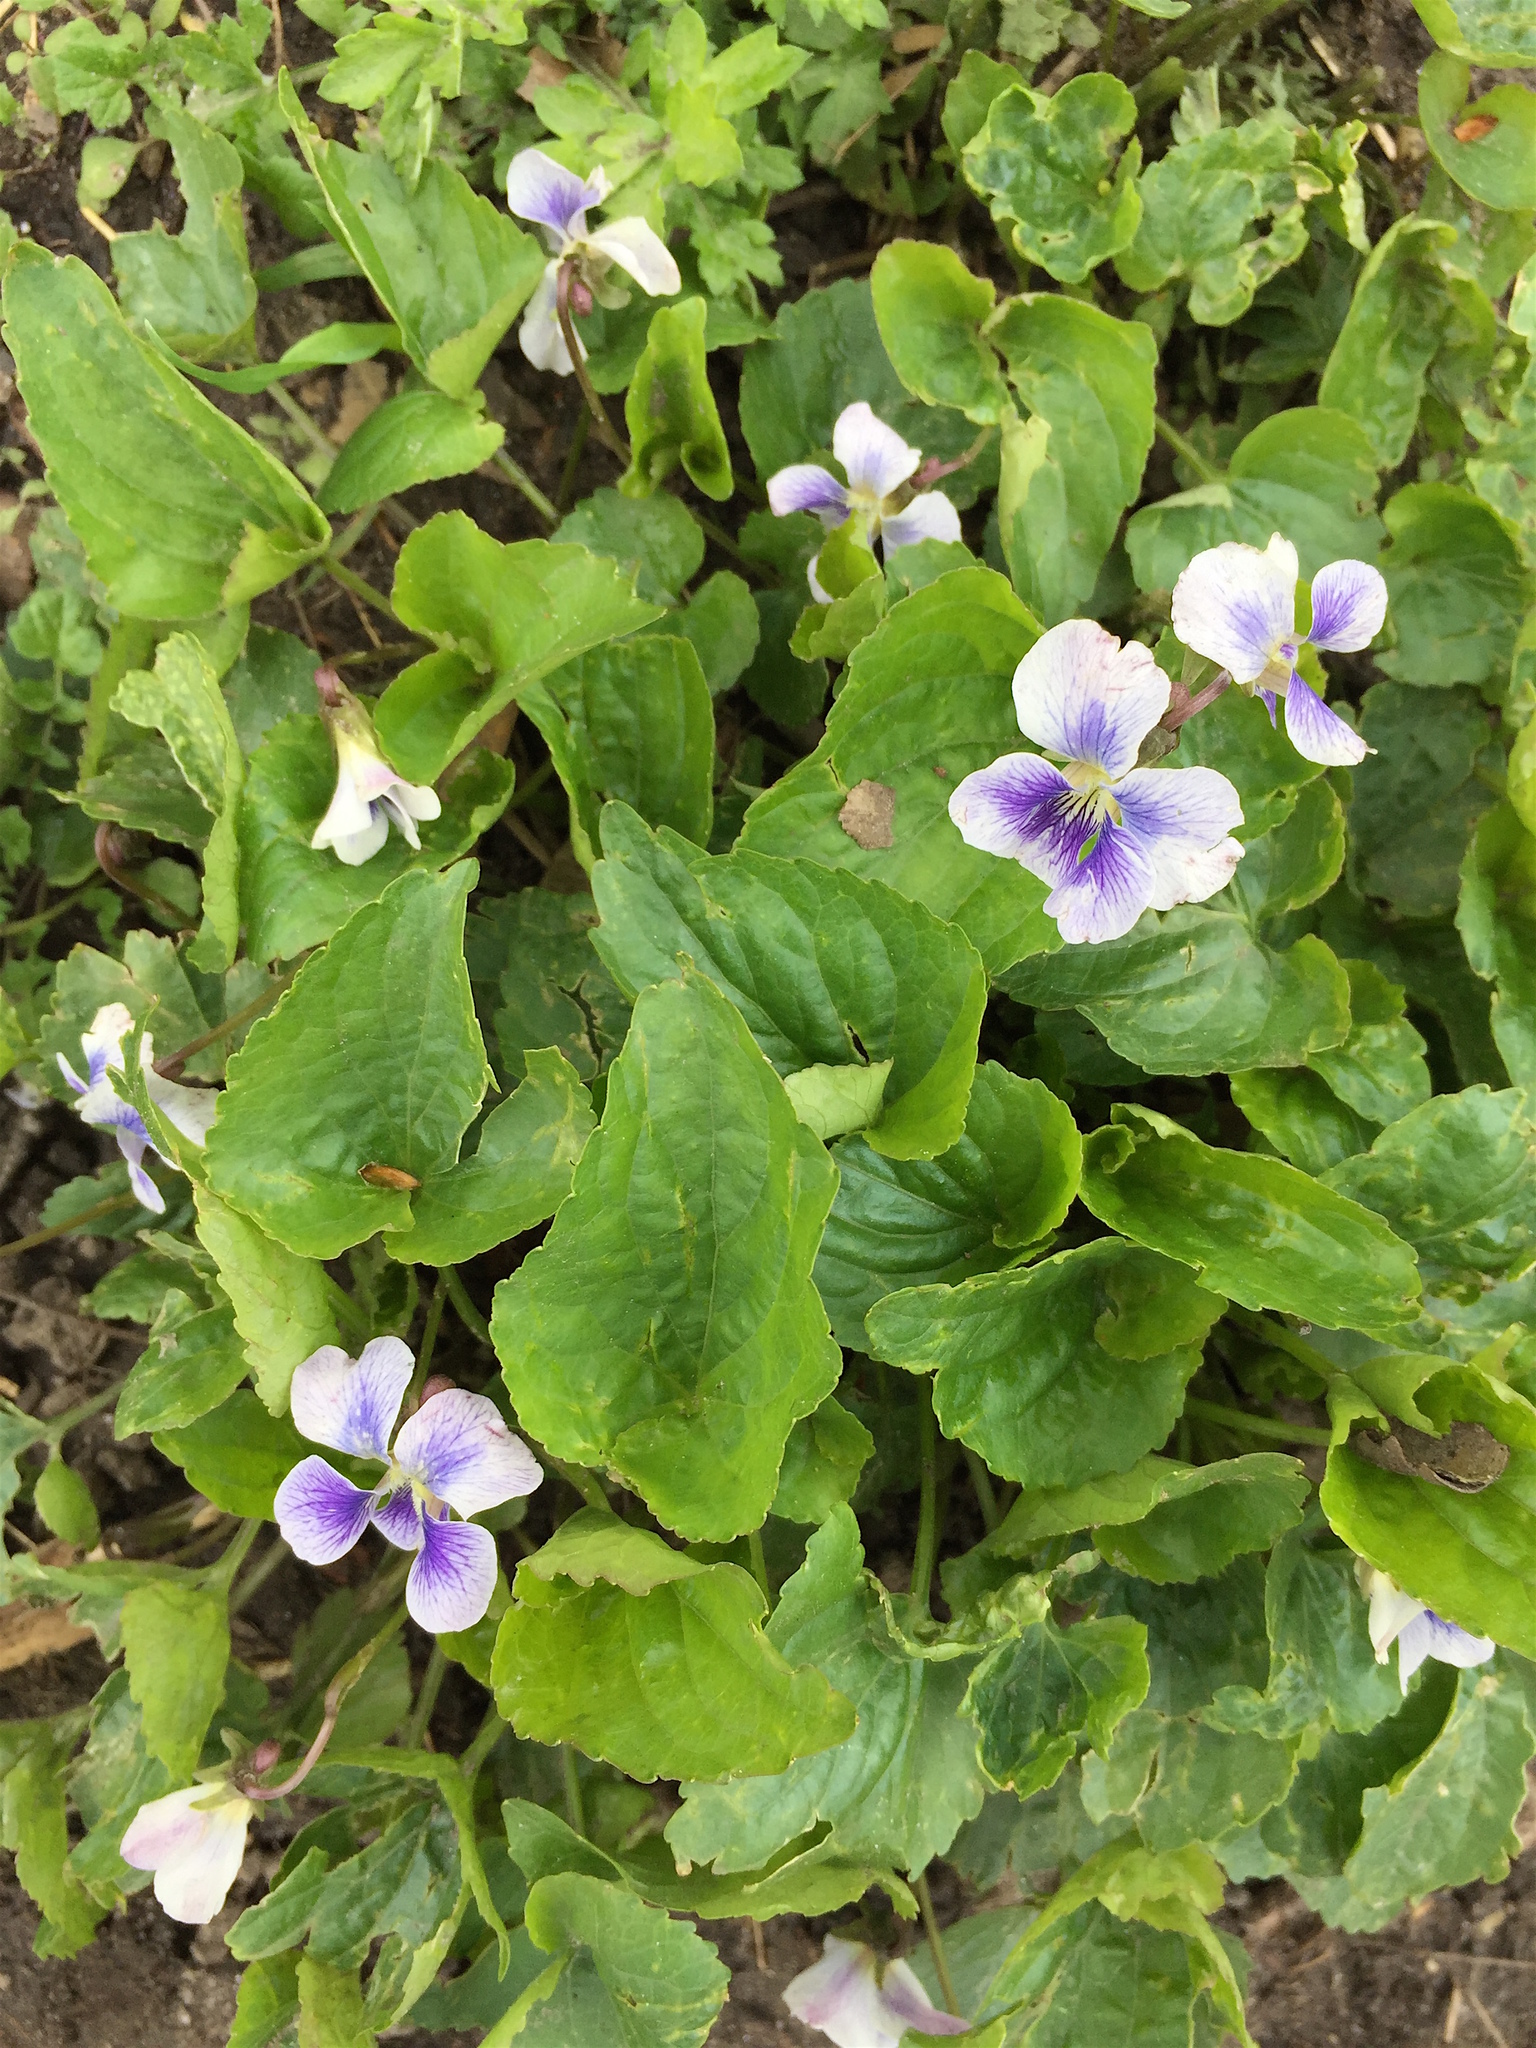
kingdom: Plantae
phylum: Tracheophyta
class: Magnoliopsida
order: Malpighiales
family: Violaceae
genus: Viola
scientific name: Viola sororia
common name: Dooryard violet
